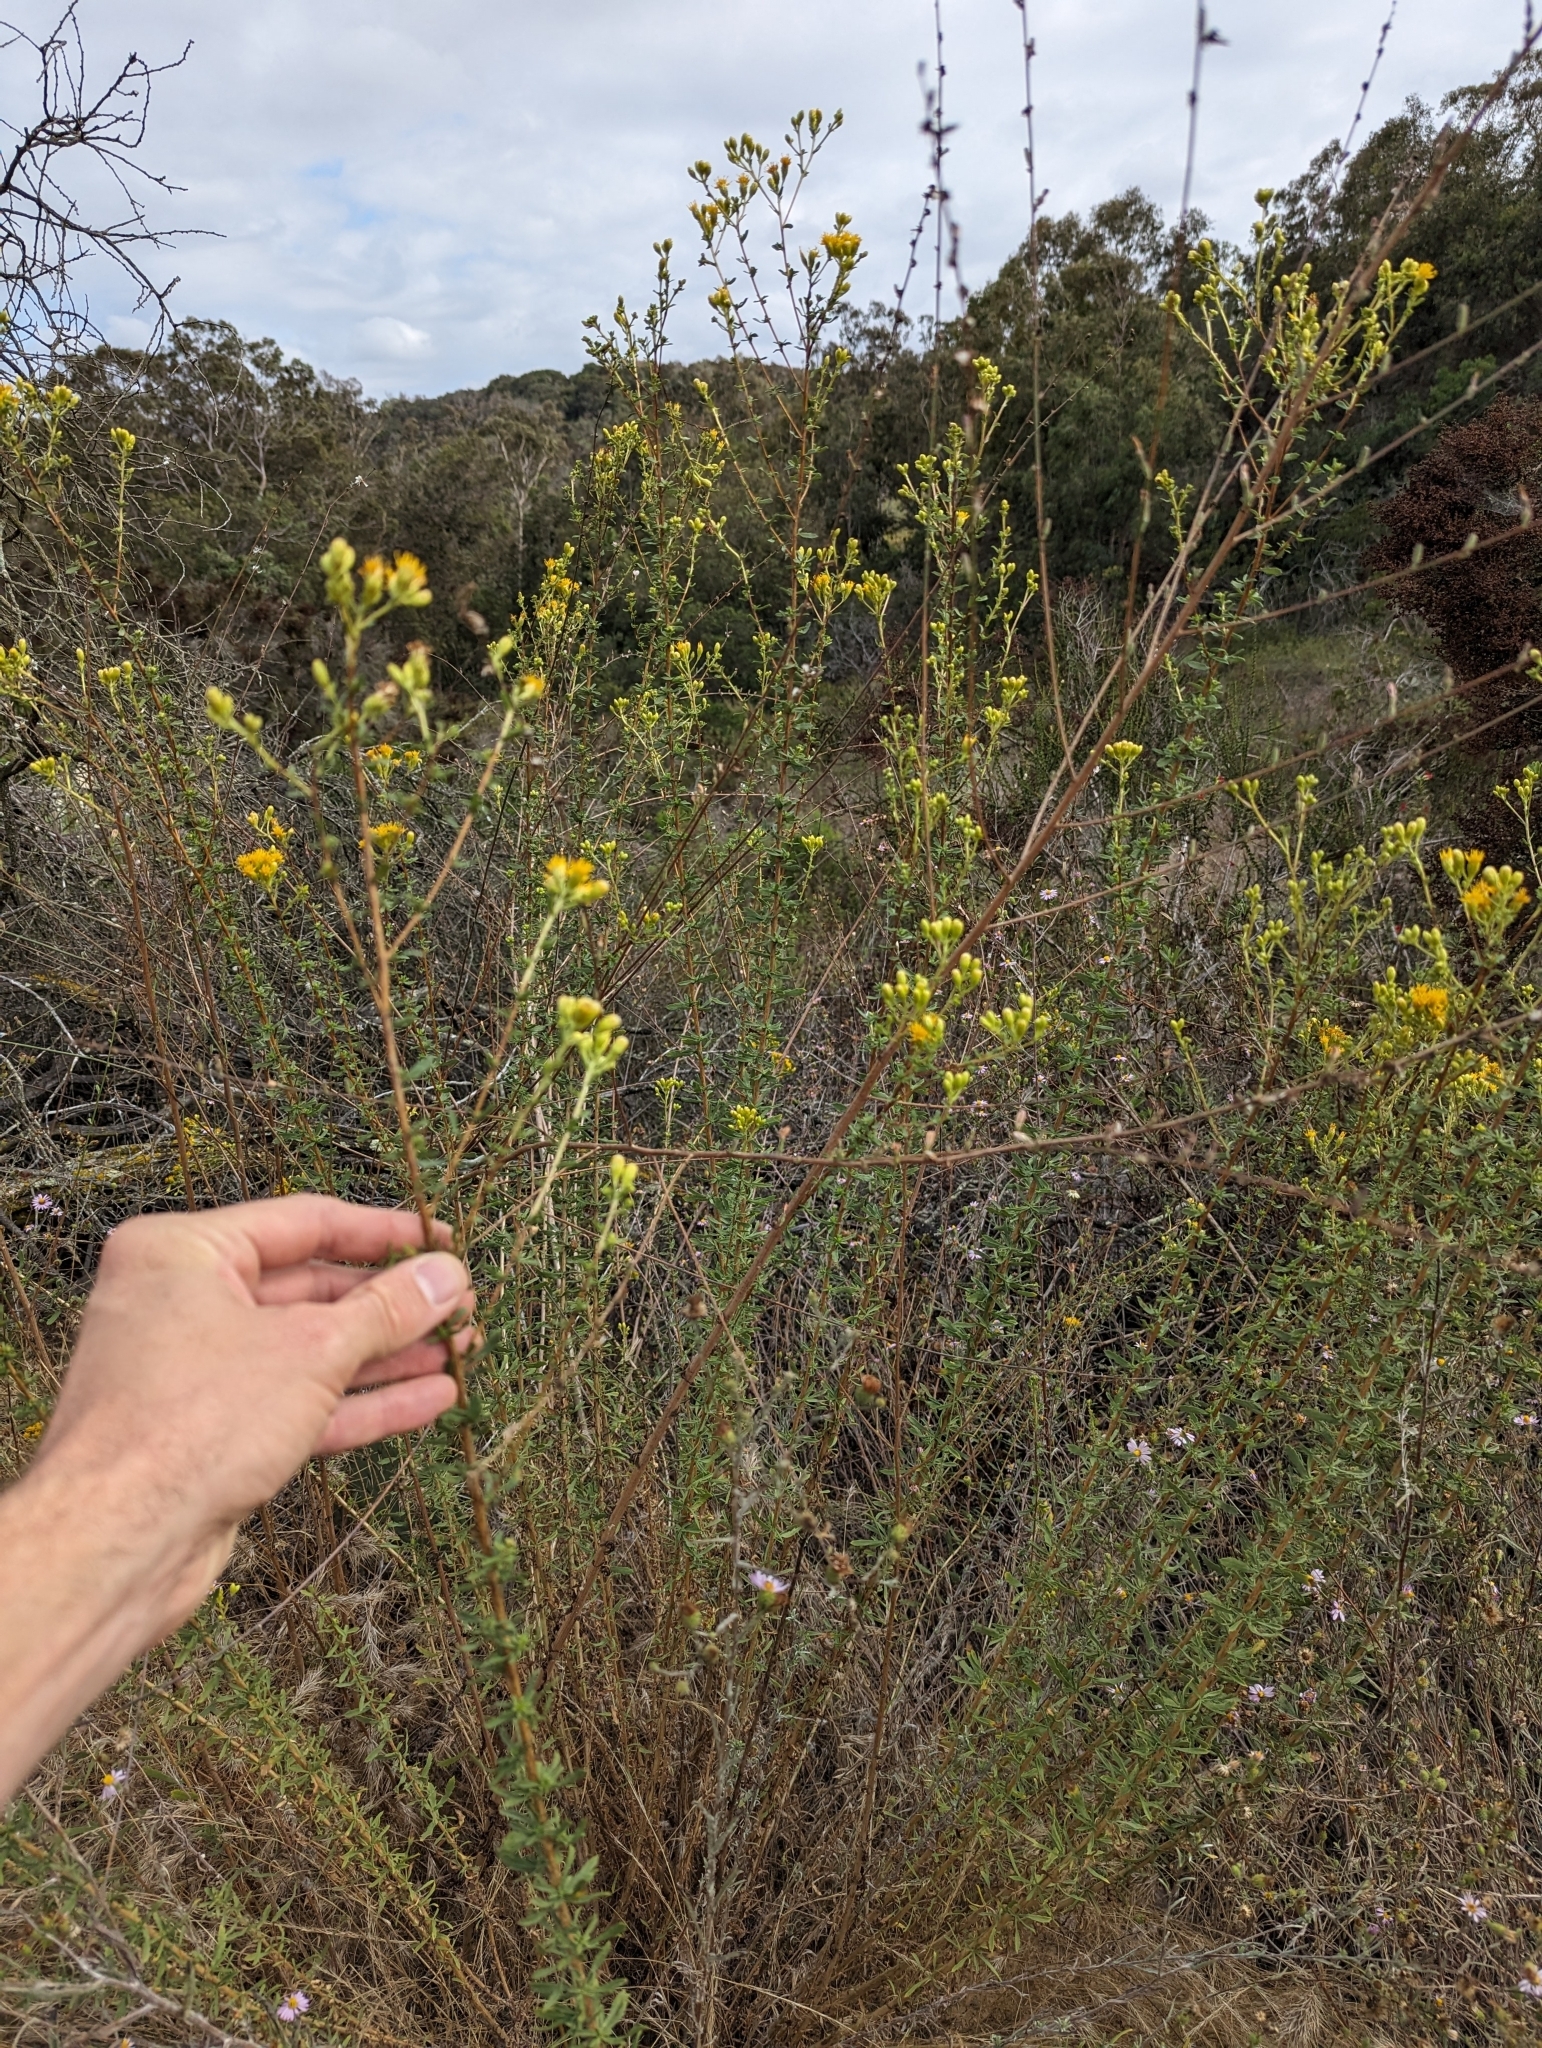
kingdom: Plantae
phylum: Tracheophyta
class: Magnoliopsida
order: Asterales
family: Asteraceae
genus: Isocoma
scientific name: Isocoma menziesii
